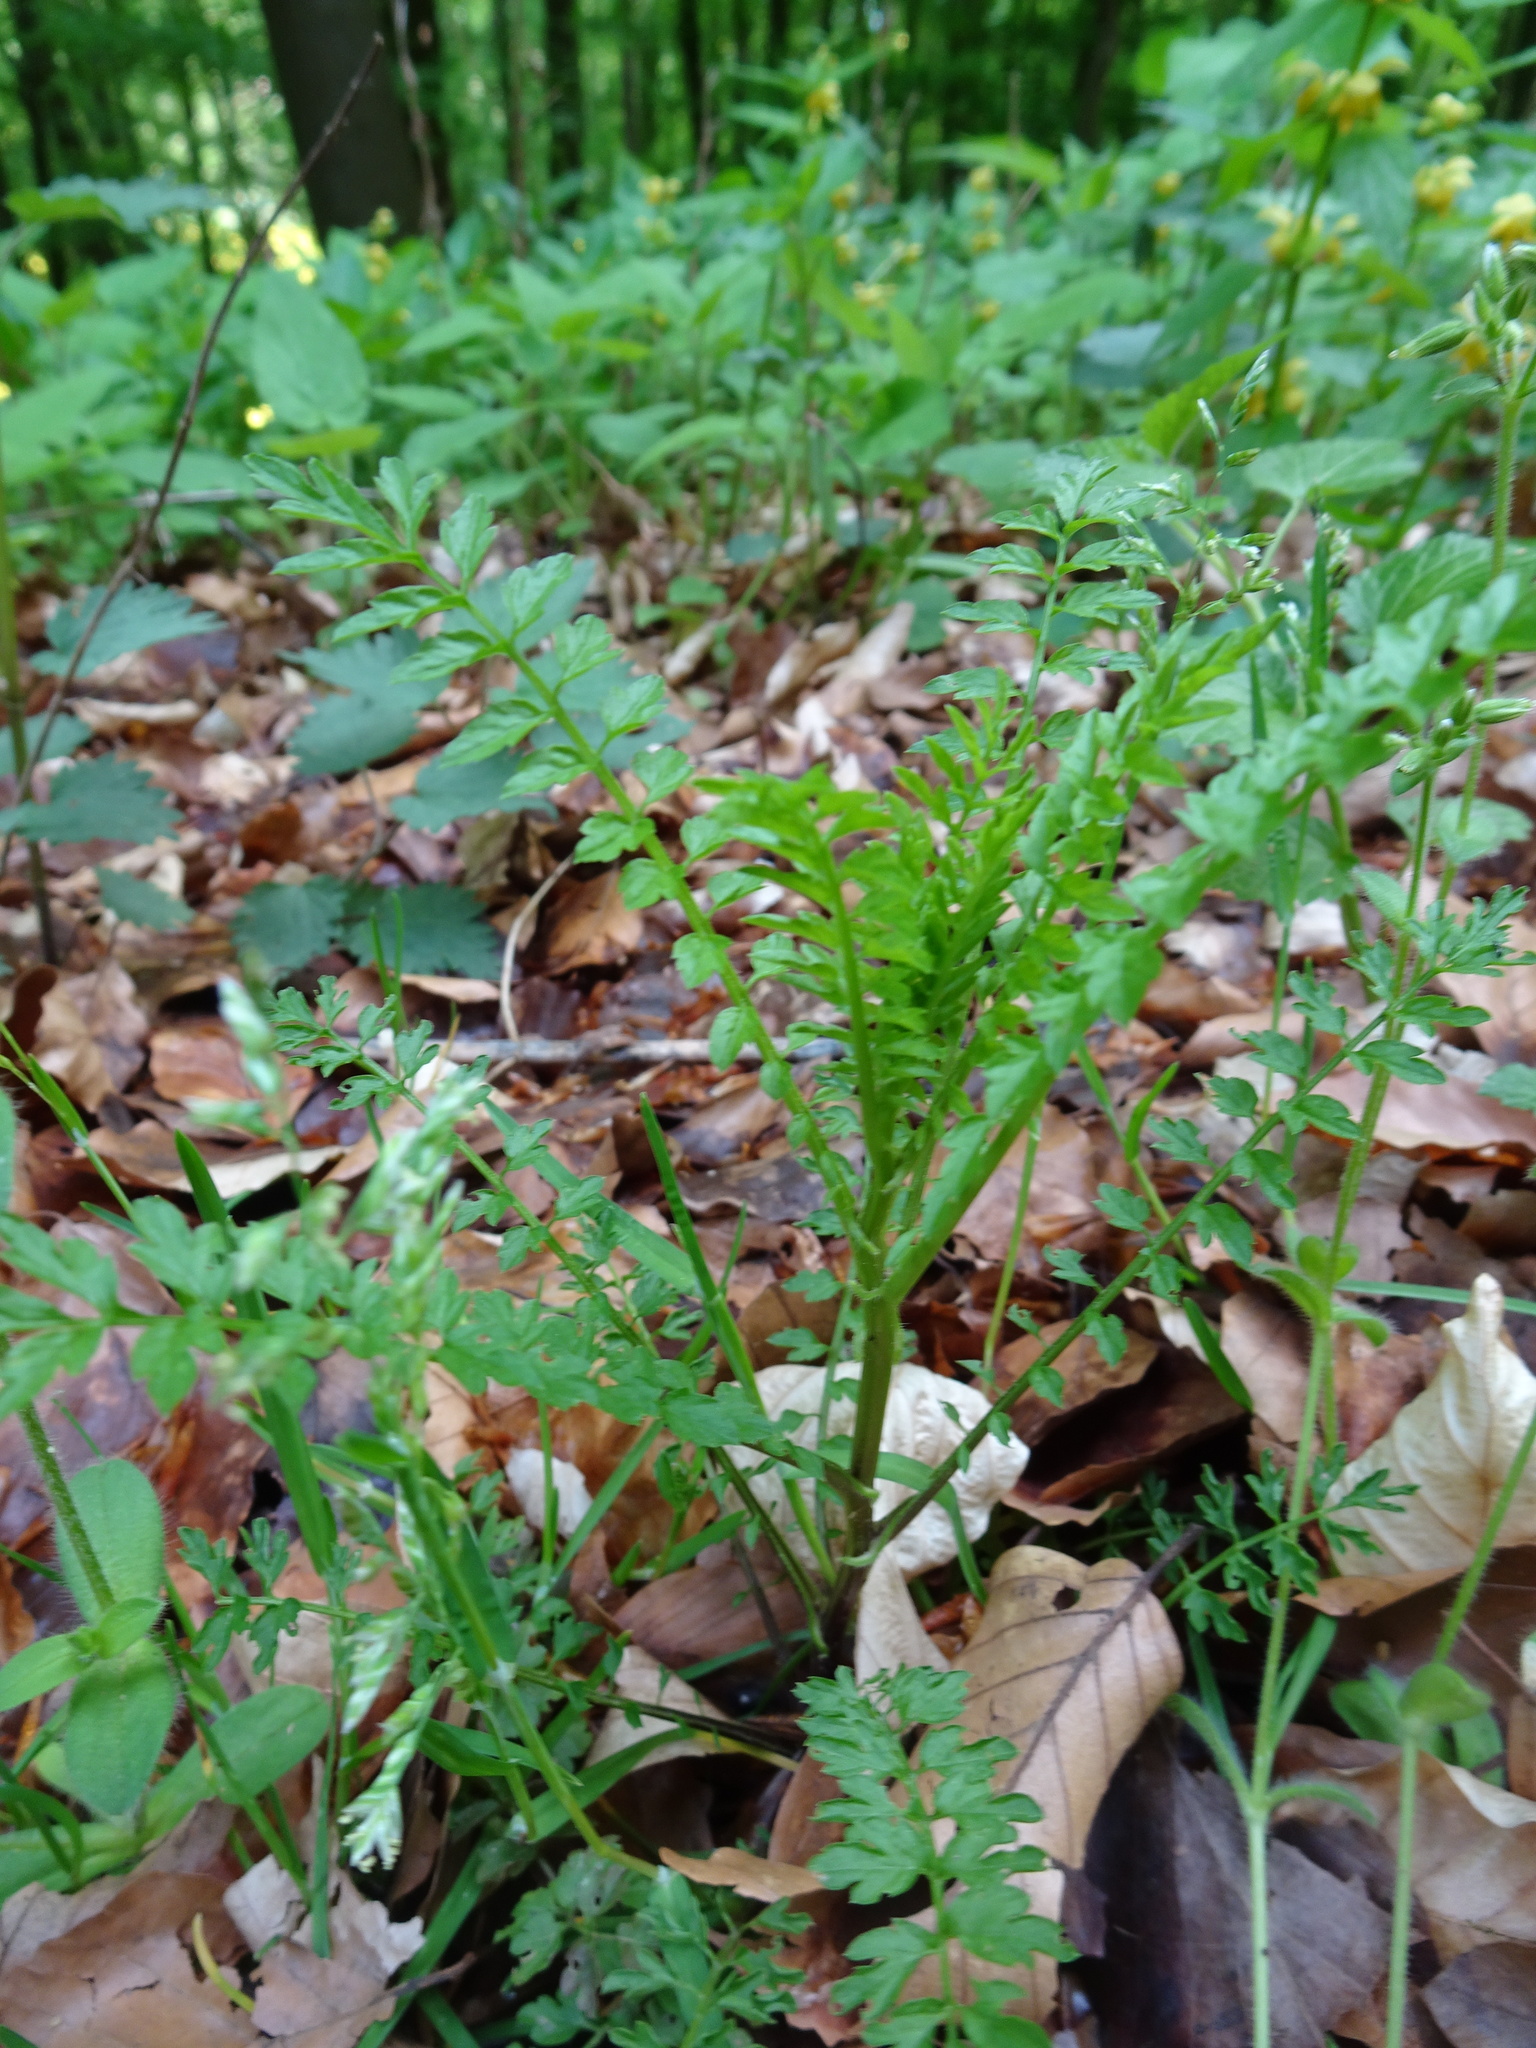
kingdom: Plantae
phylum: Tracheophyta
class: Magnoliopsida
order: Brassicales
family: Brassicaceae
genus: Cardamine
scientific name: Cardamine impatiens
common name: Narrow-leaved bitter-cress
